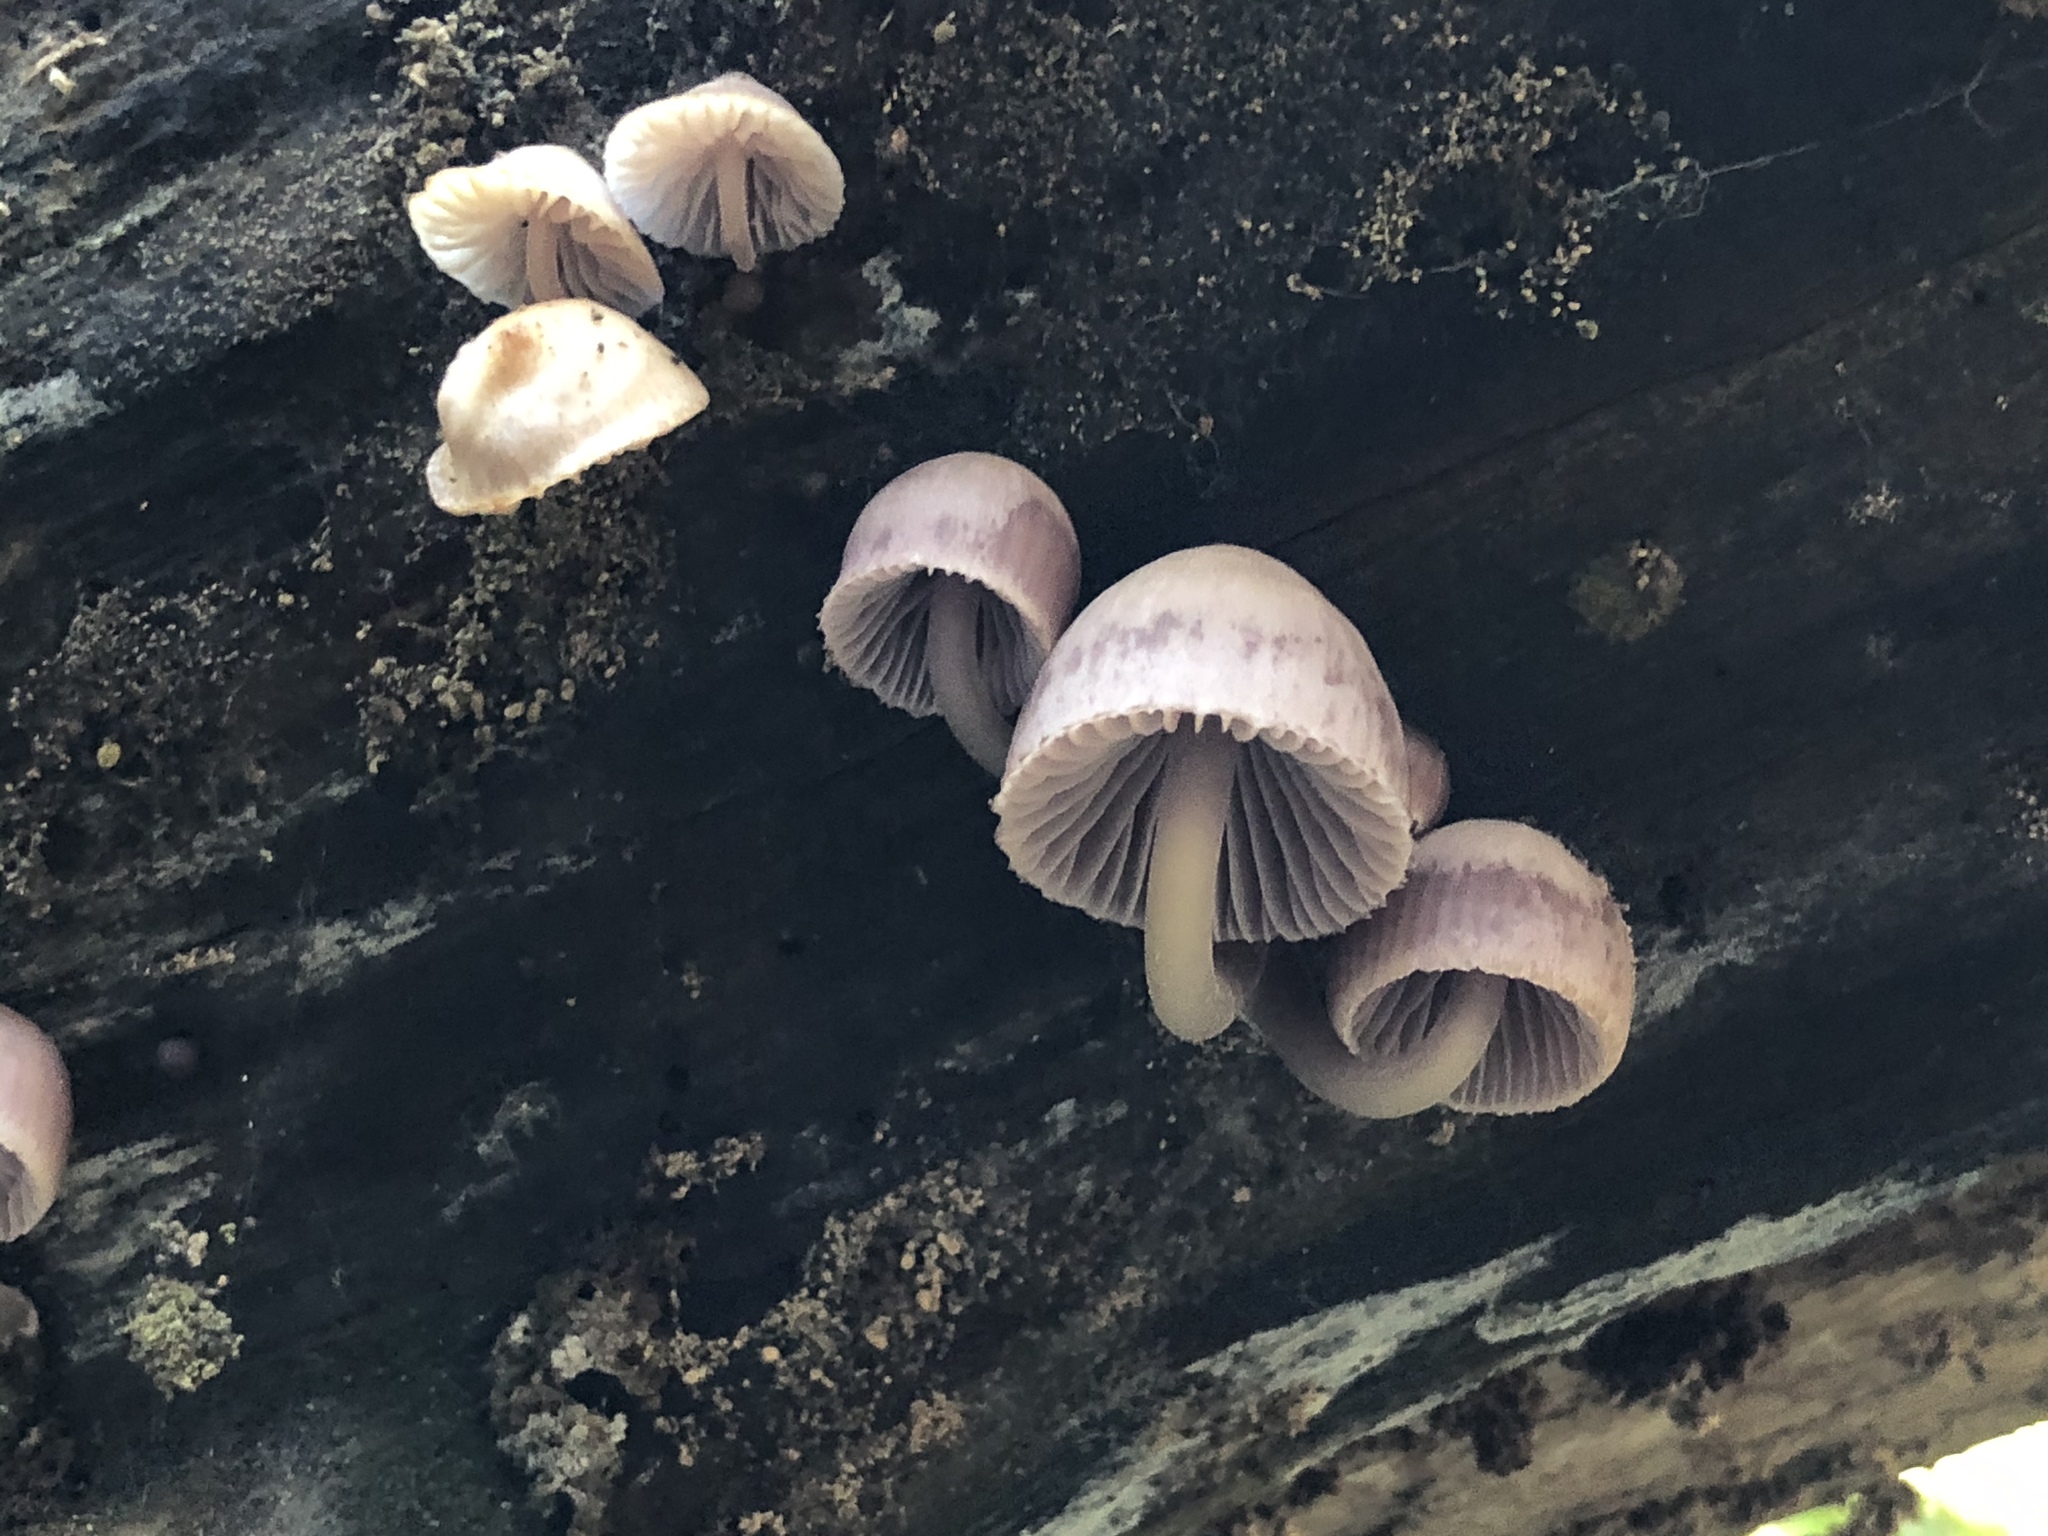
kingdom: Fungi
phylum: Basidiomycota
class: Agaricomycetes
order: Agaricales
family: Mycenaceae
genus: Mycena
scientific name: Mycena clarkeana
